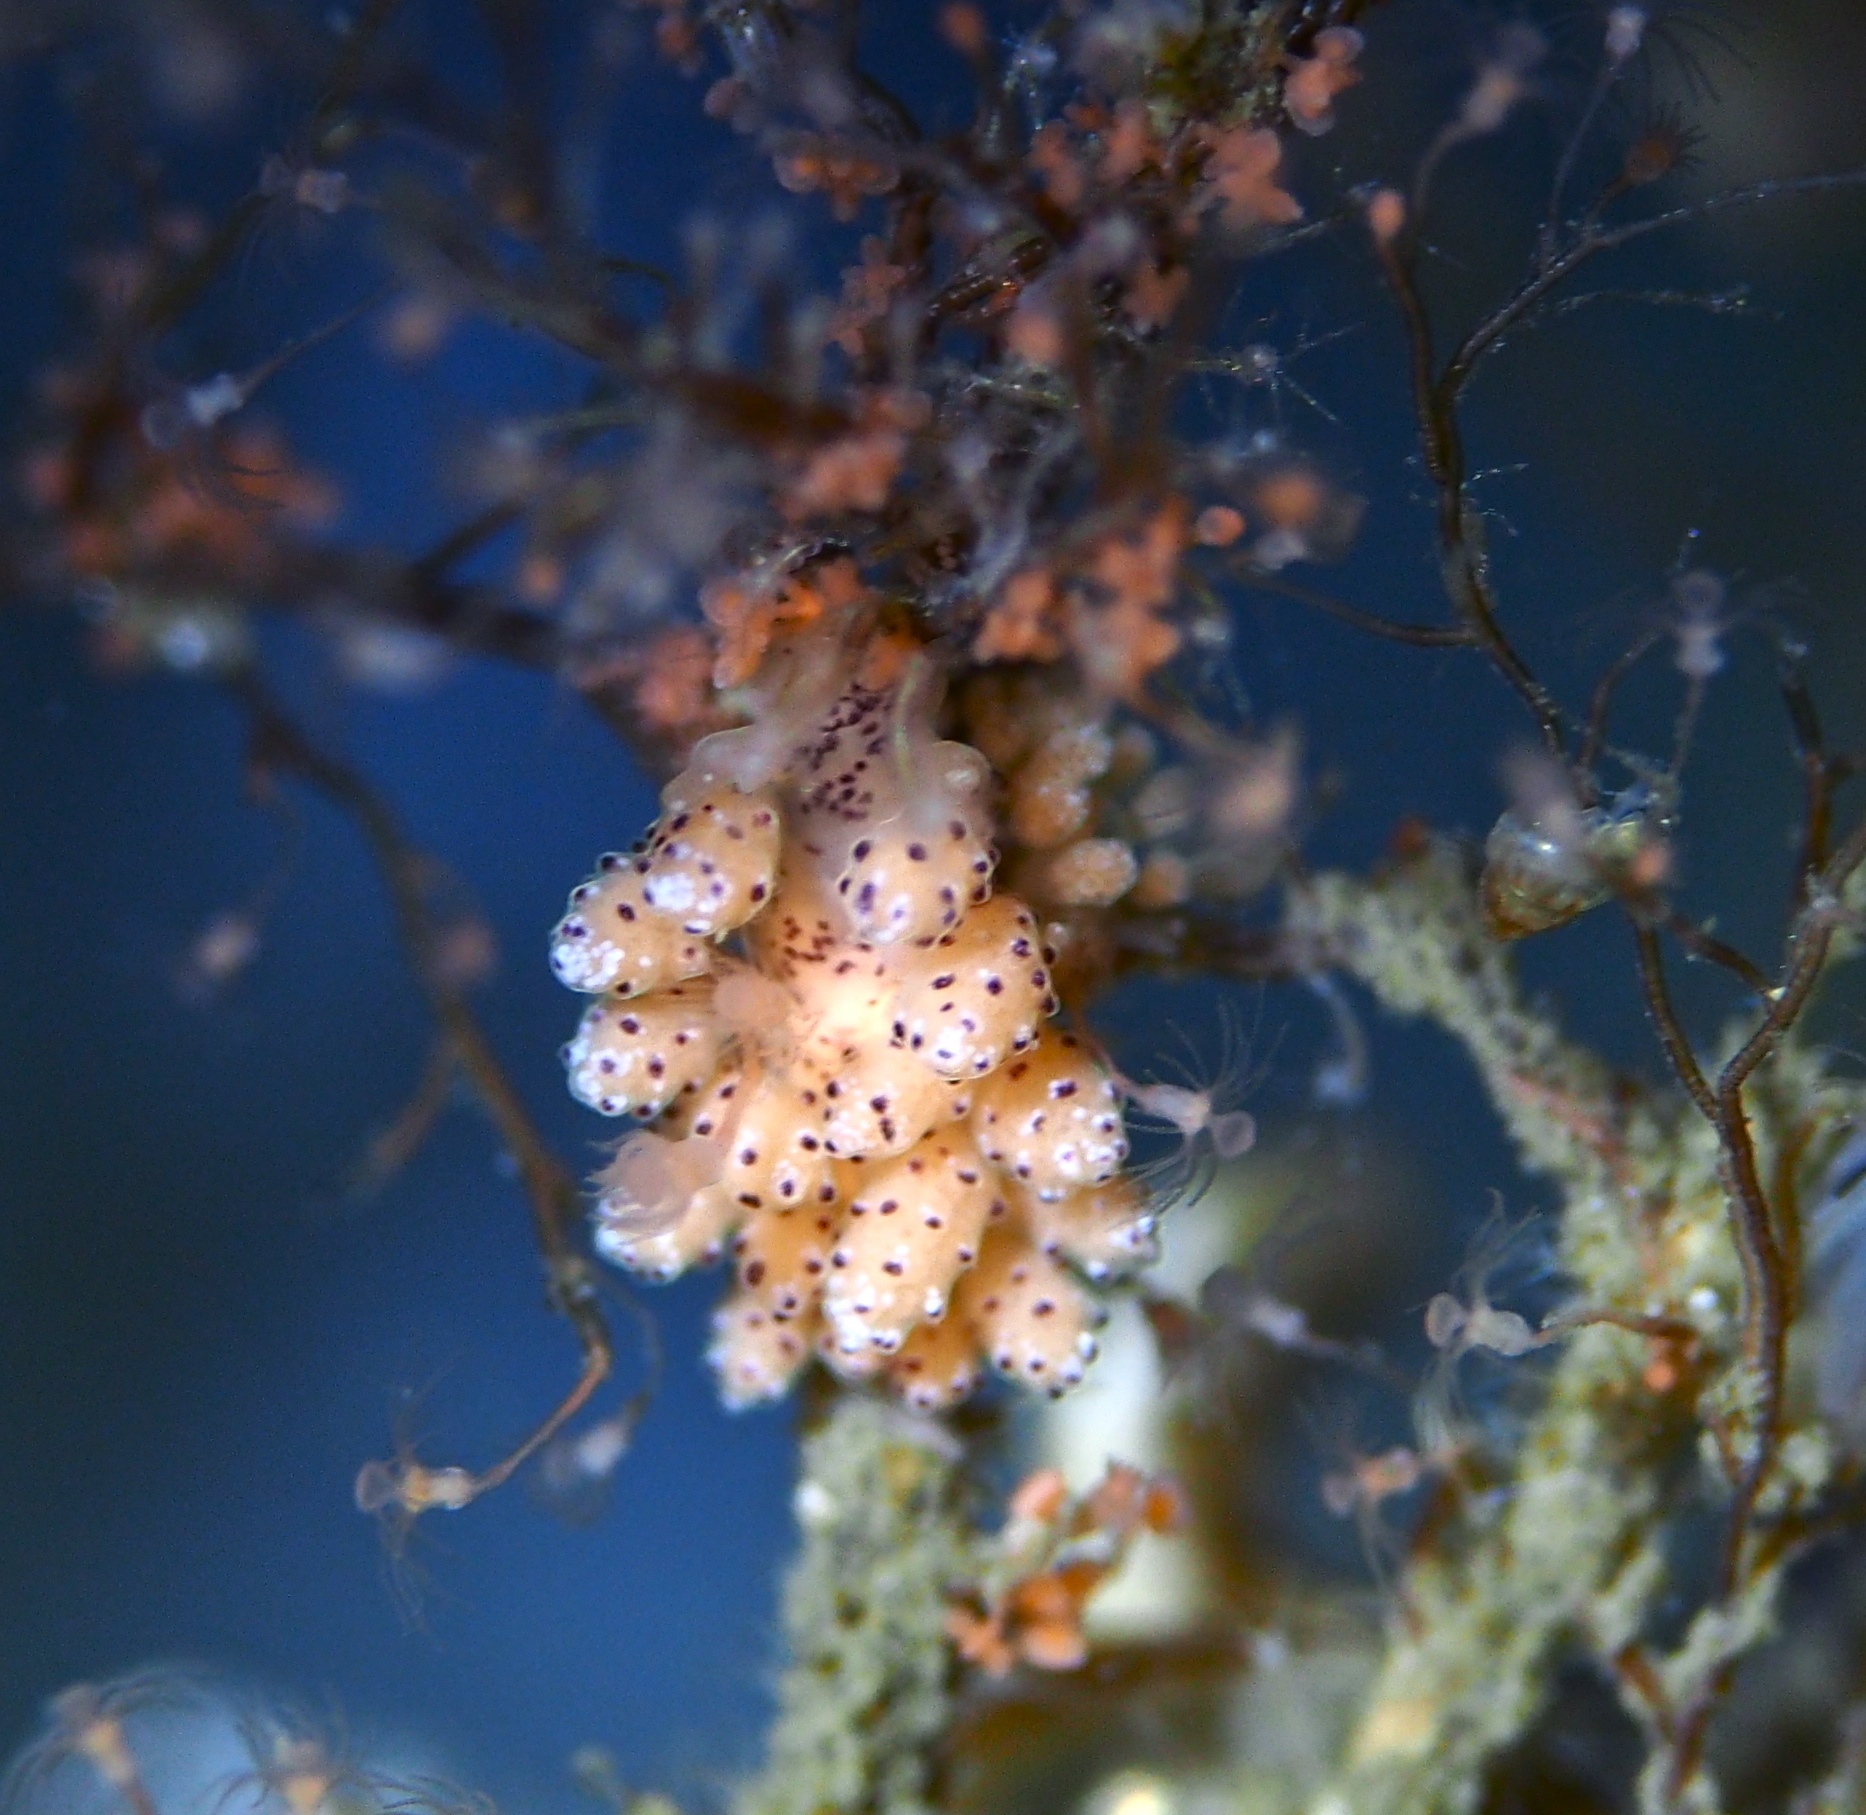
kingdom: Animalia
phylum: Mollusca
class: Gastropoda
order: Nudibranchia
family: Dotidae
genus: Doto
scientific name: Doto dunnei
